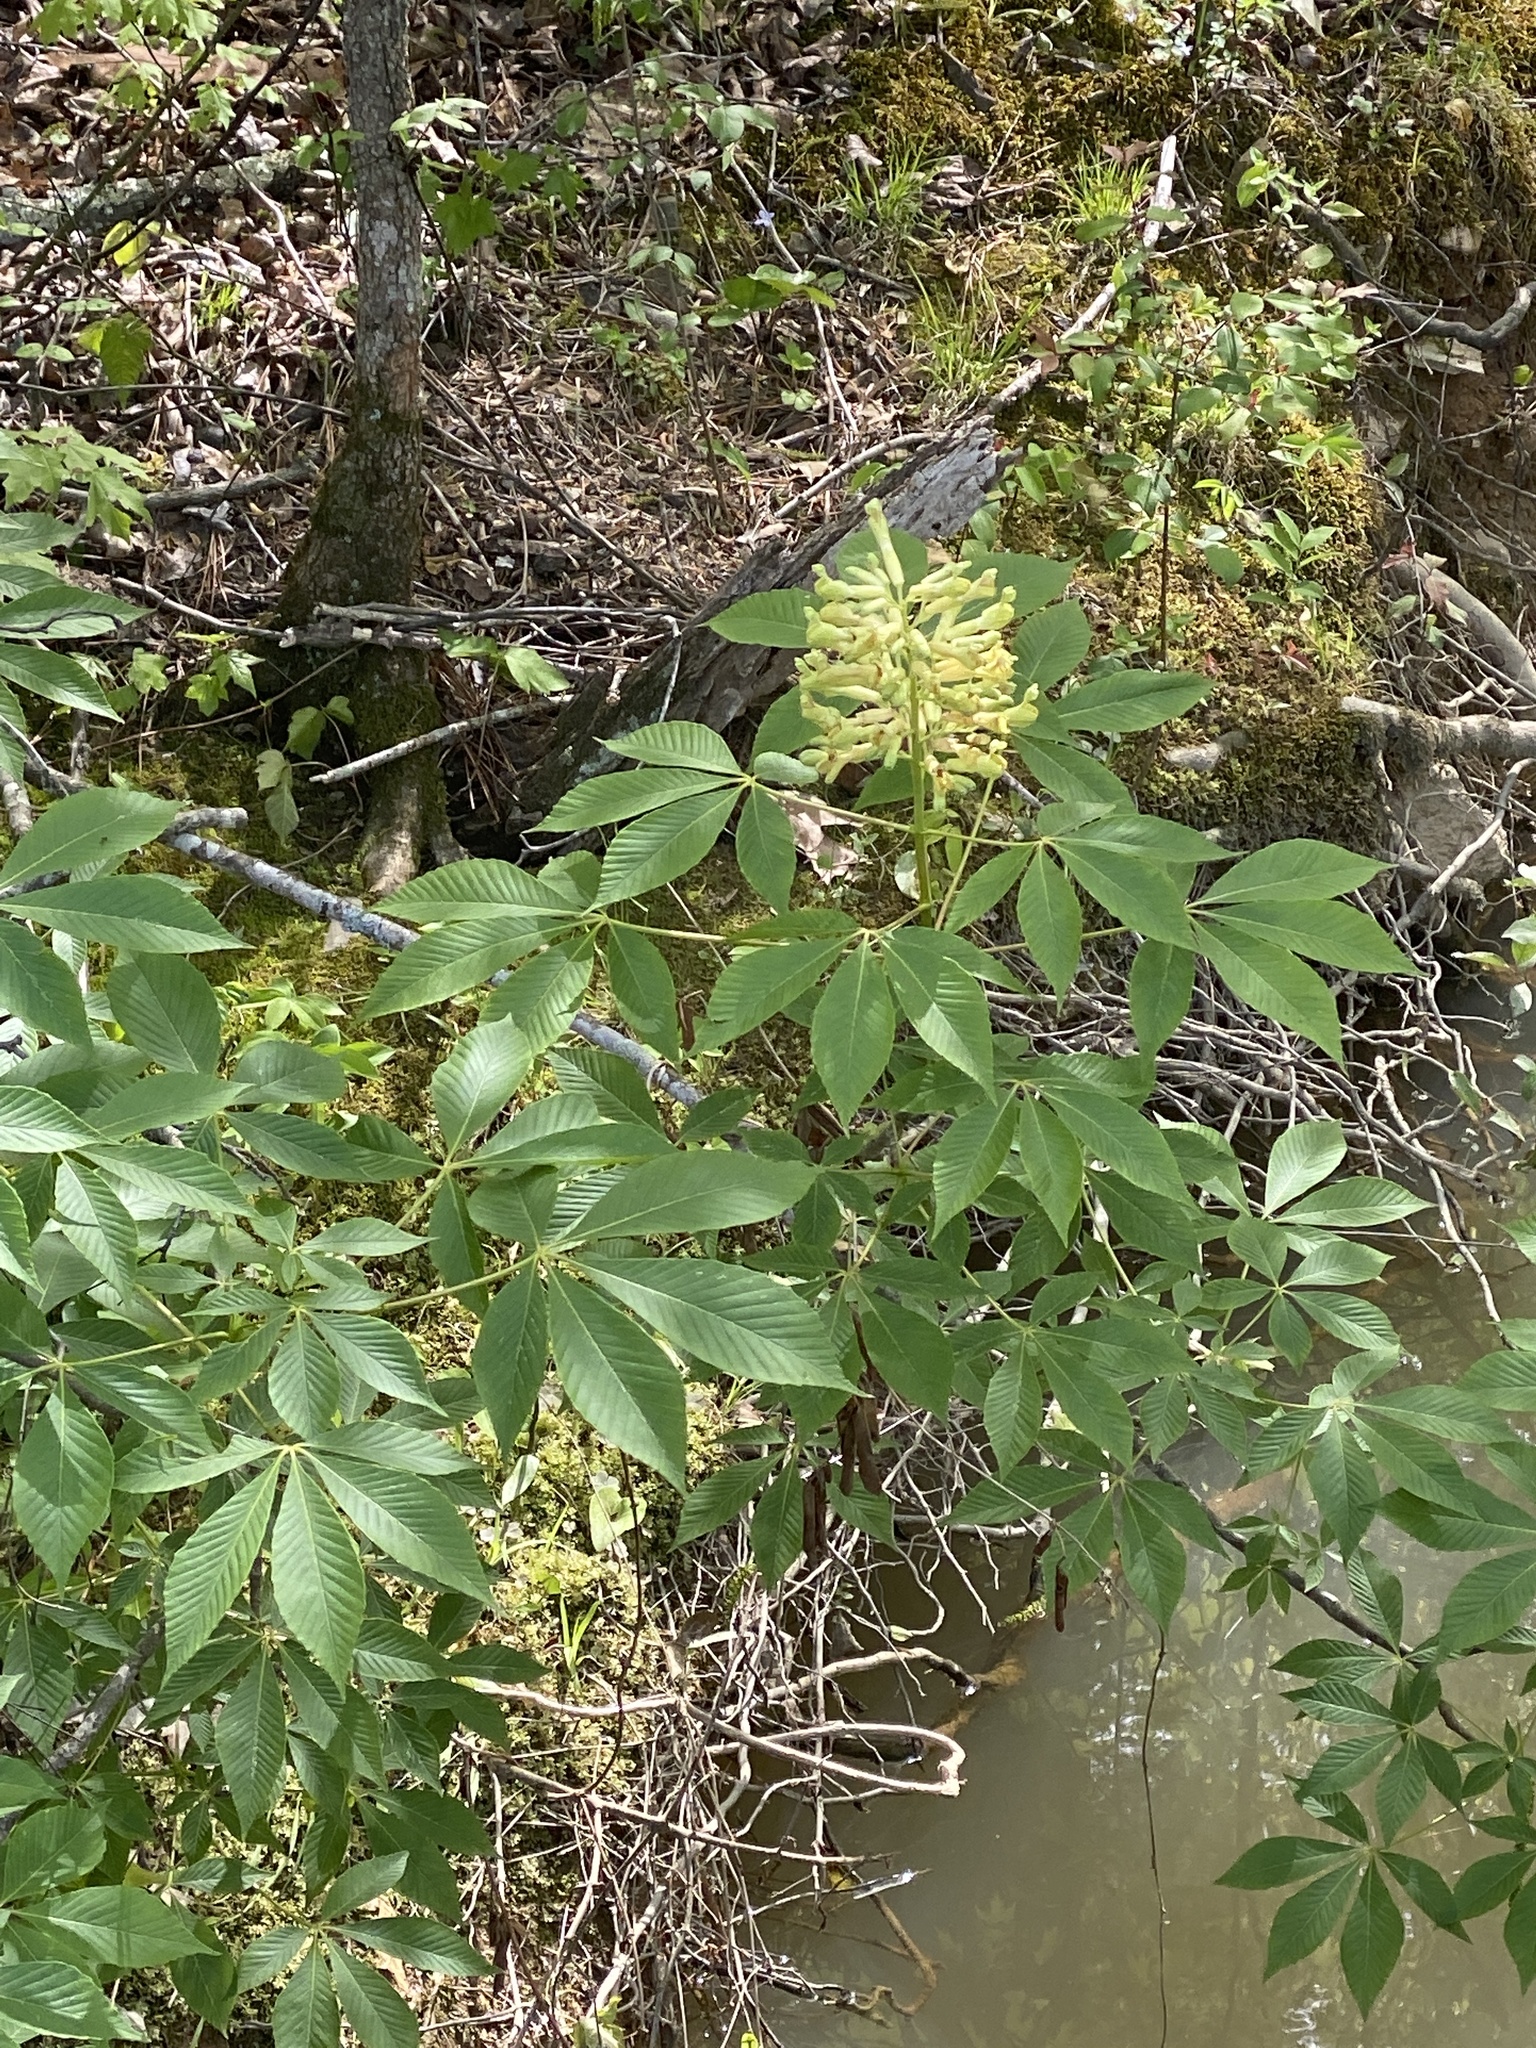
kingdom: Plantae
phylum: Tracheophyta
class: Magnoliopsida
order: Sapindales
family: Sapindaceae
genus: Aesculus
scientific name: Aesculus sylvatica
